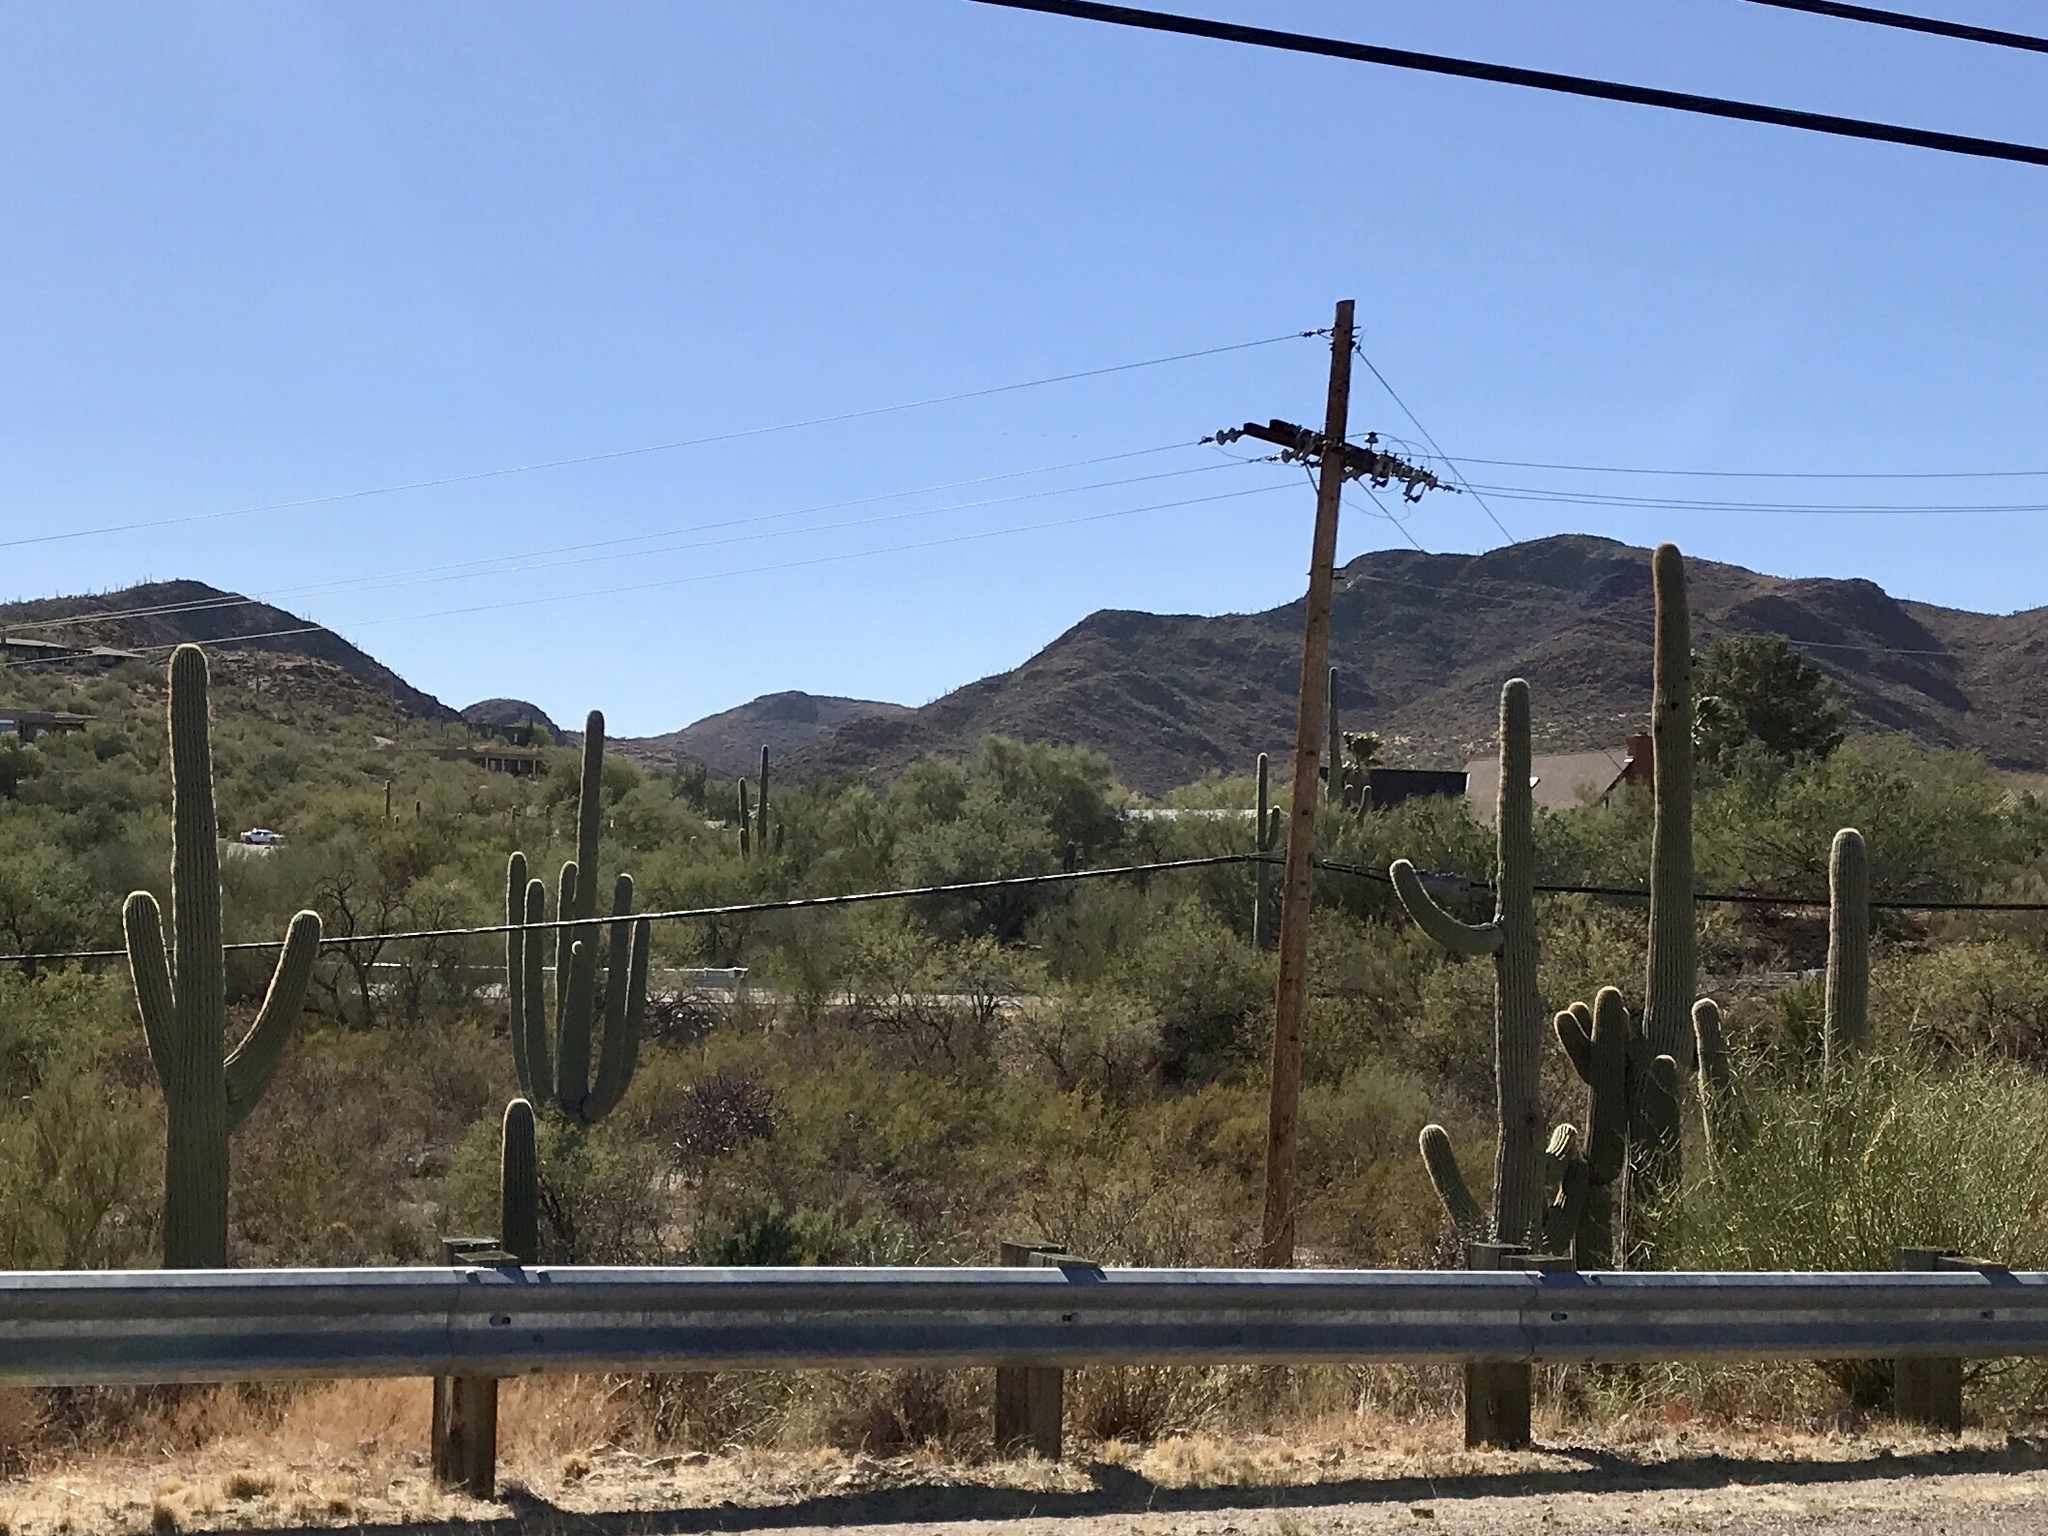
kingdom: Plantae
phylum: Tracheophyta
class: Magnoliopsida
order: Caryophyllales
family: Cactaceae
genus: Carnegiea
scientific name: Carnegiea gigantea
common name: Saguaro
